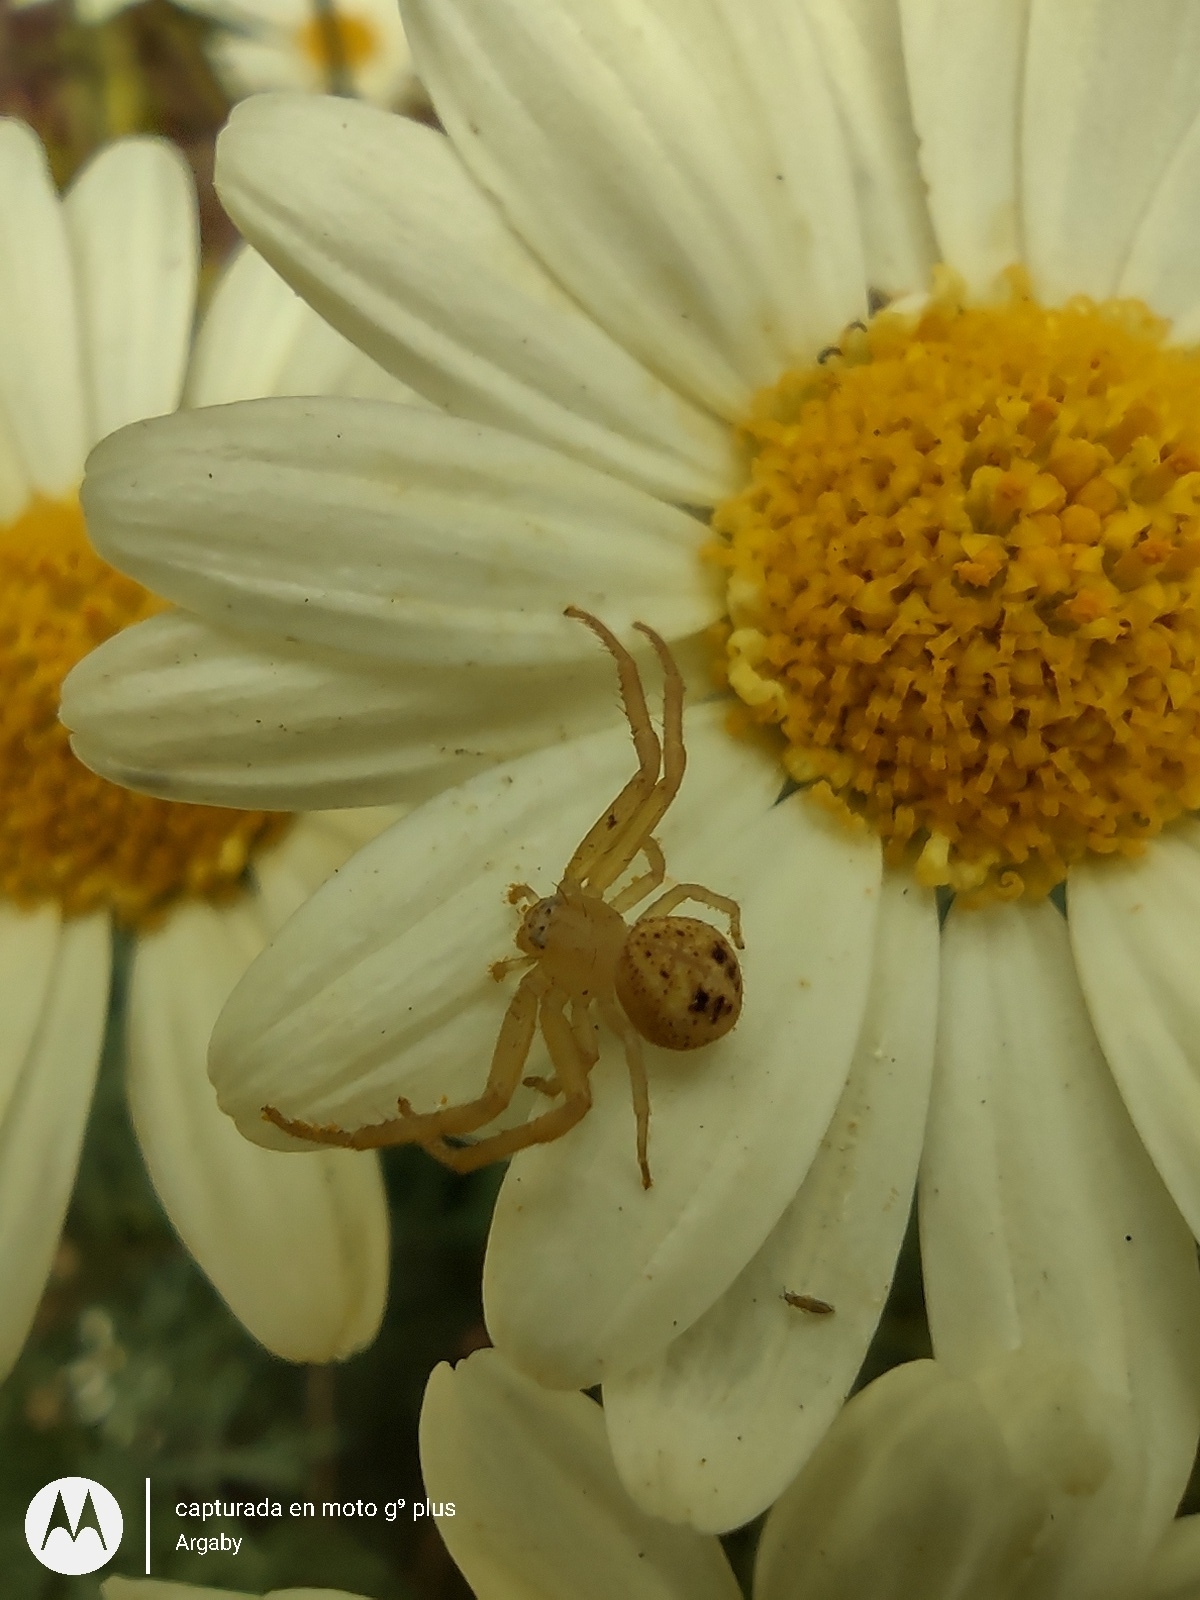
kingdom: Animalia
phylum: Arthropoda
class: Arachnida
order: Araneae
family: Thomisidae
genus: Misumenops
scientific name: Misumenops
